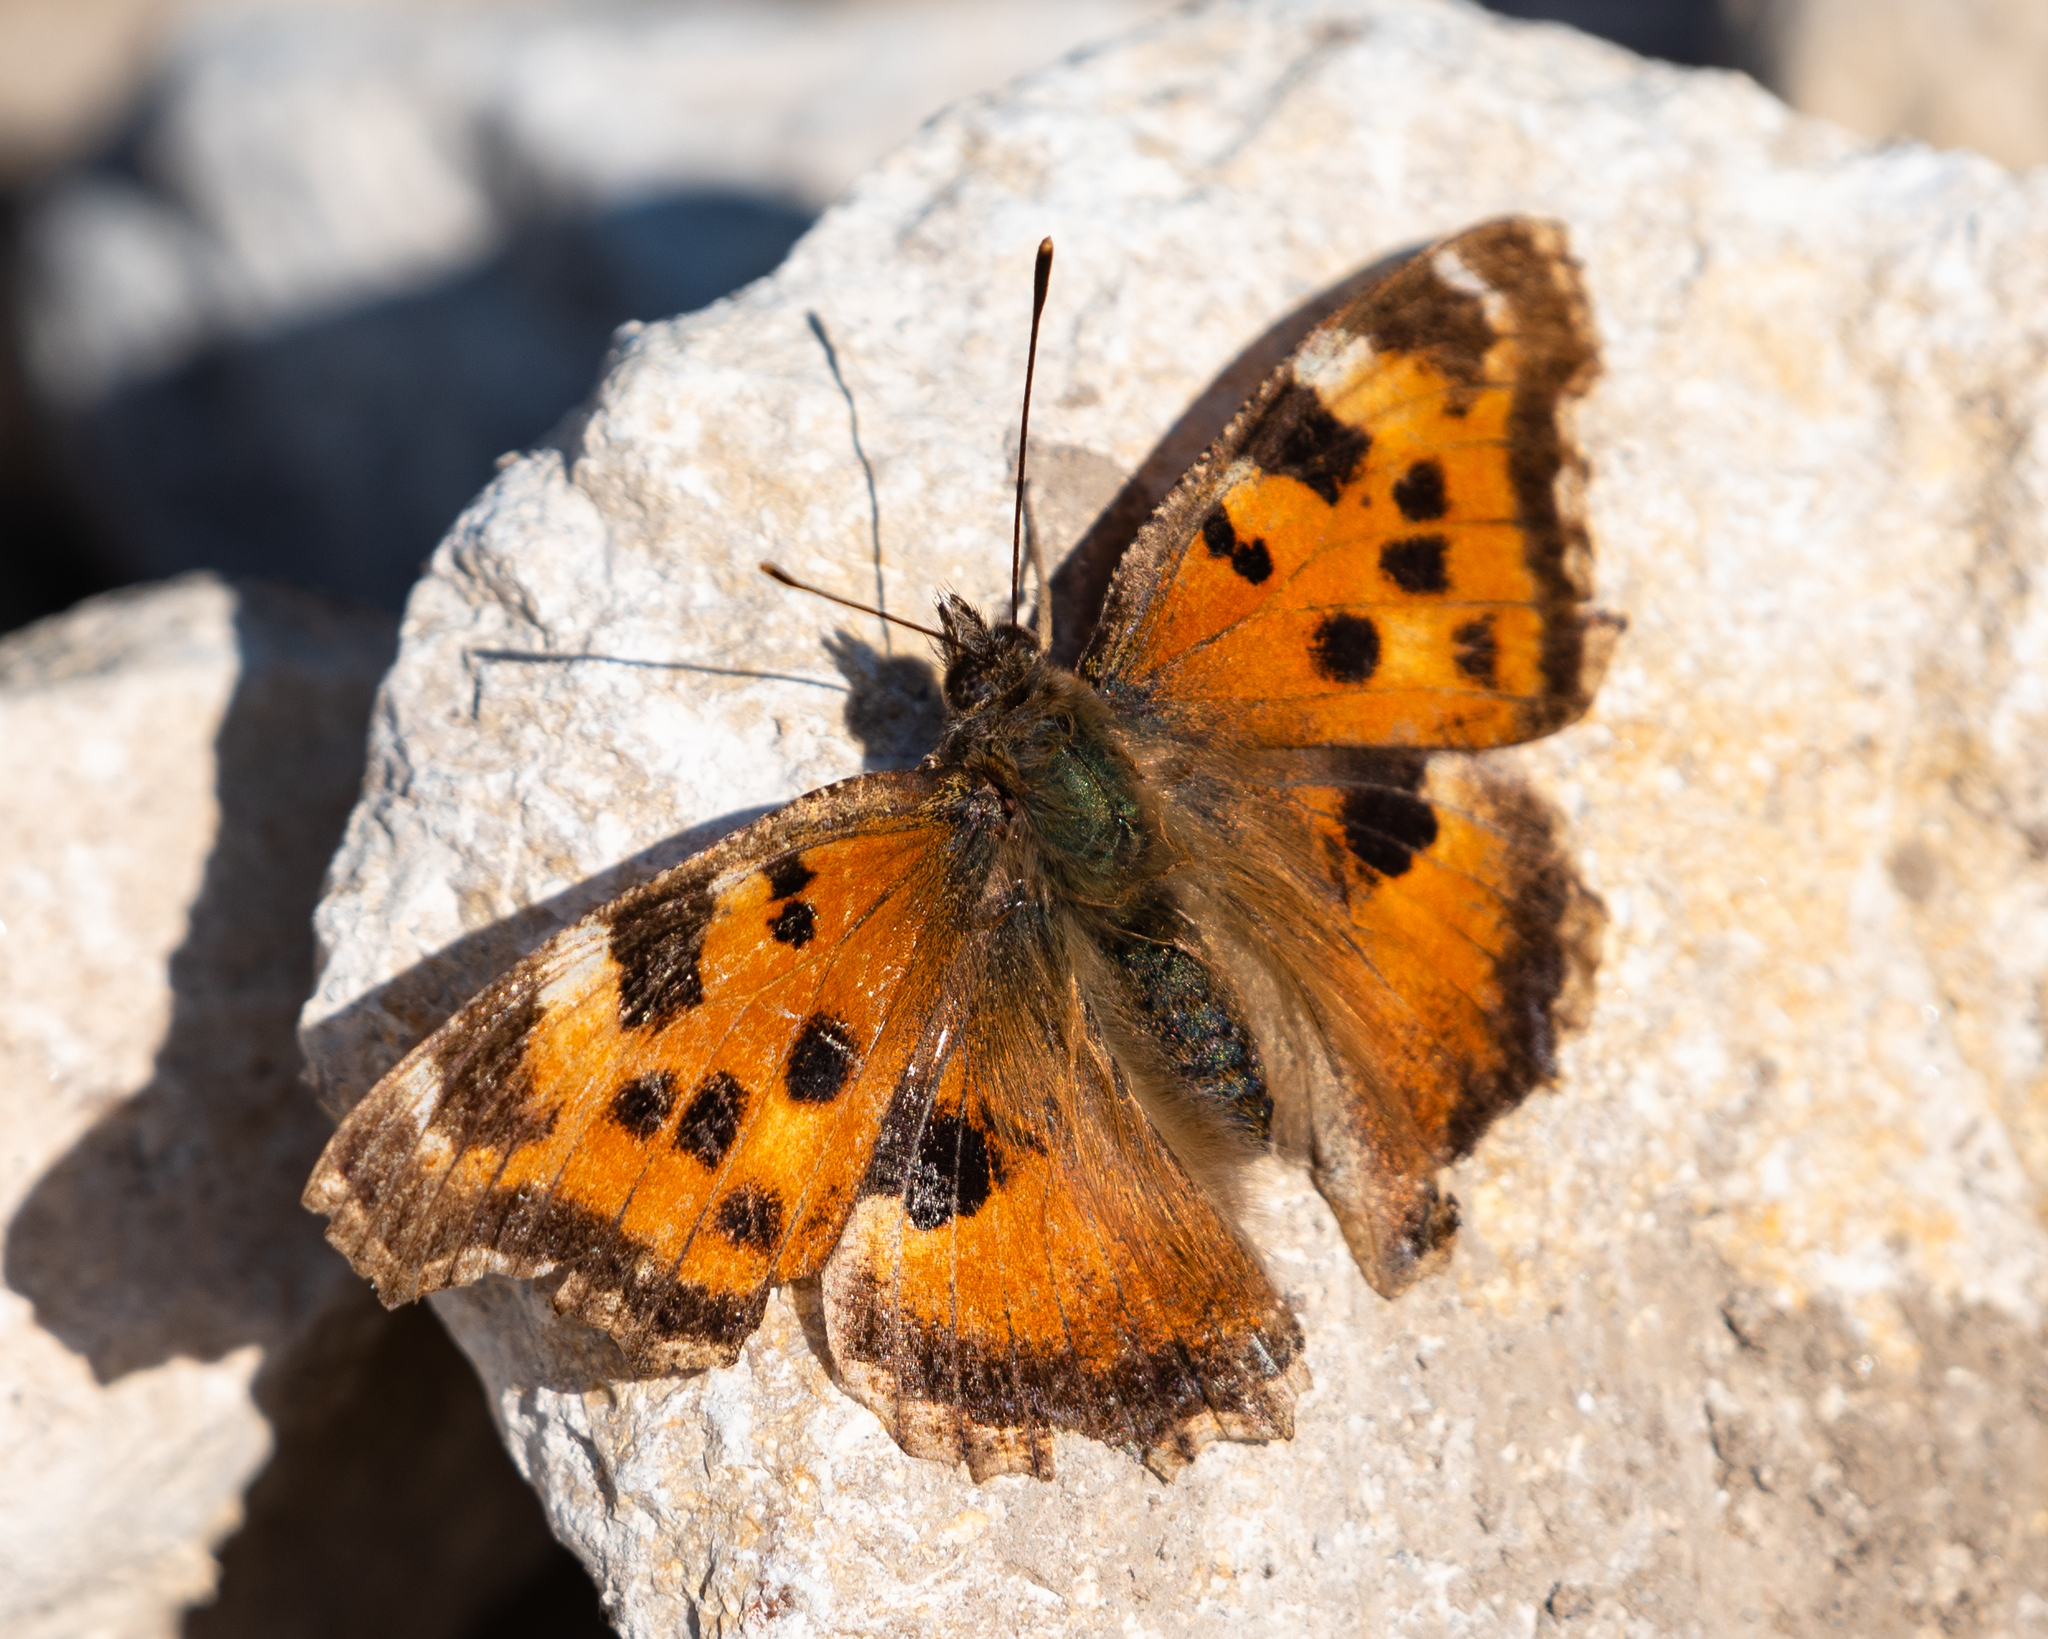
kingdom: Animalia
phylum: Arthropoda
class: Insecta
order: Lepidoptera
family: Nymphalidae
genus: Nymphalis
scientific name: Nymphalis xanthomelas
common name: Scarce tortoiseshell
